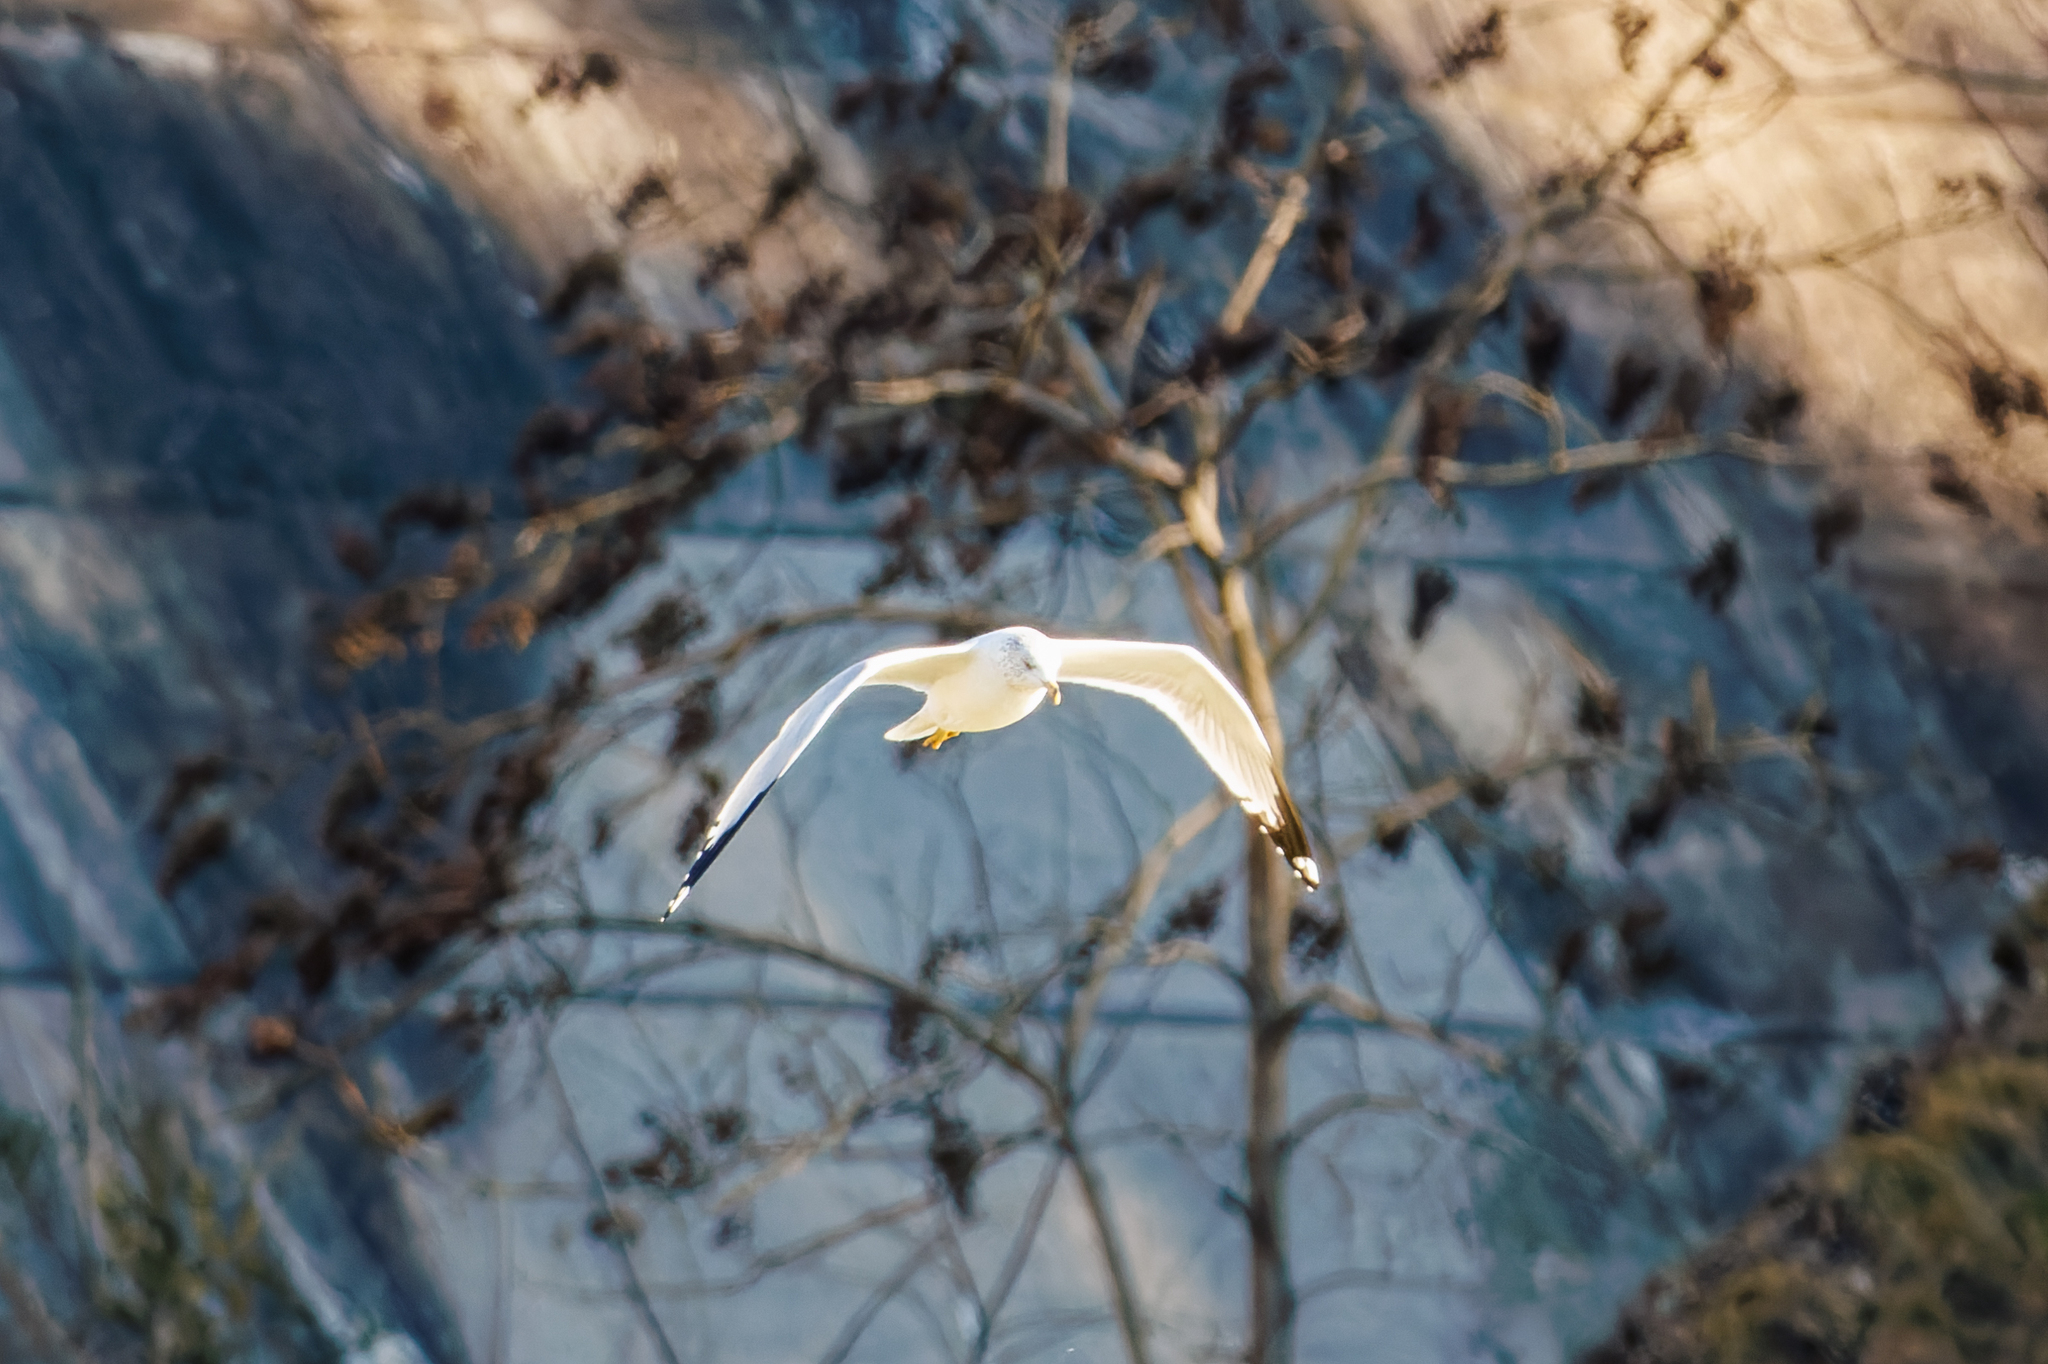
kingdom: Animalia
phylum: Chordata
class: Aves
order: Charadriiformes
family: Laridae
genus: Larus
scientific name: Larus delawarensis
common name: Ring-billed gull
